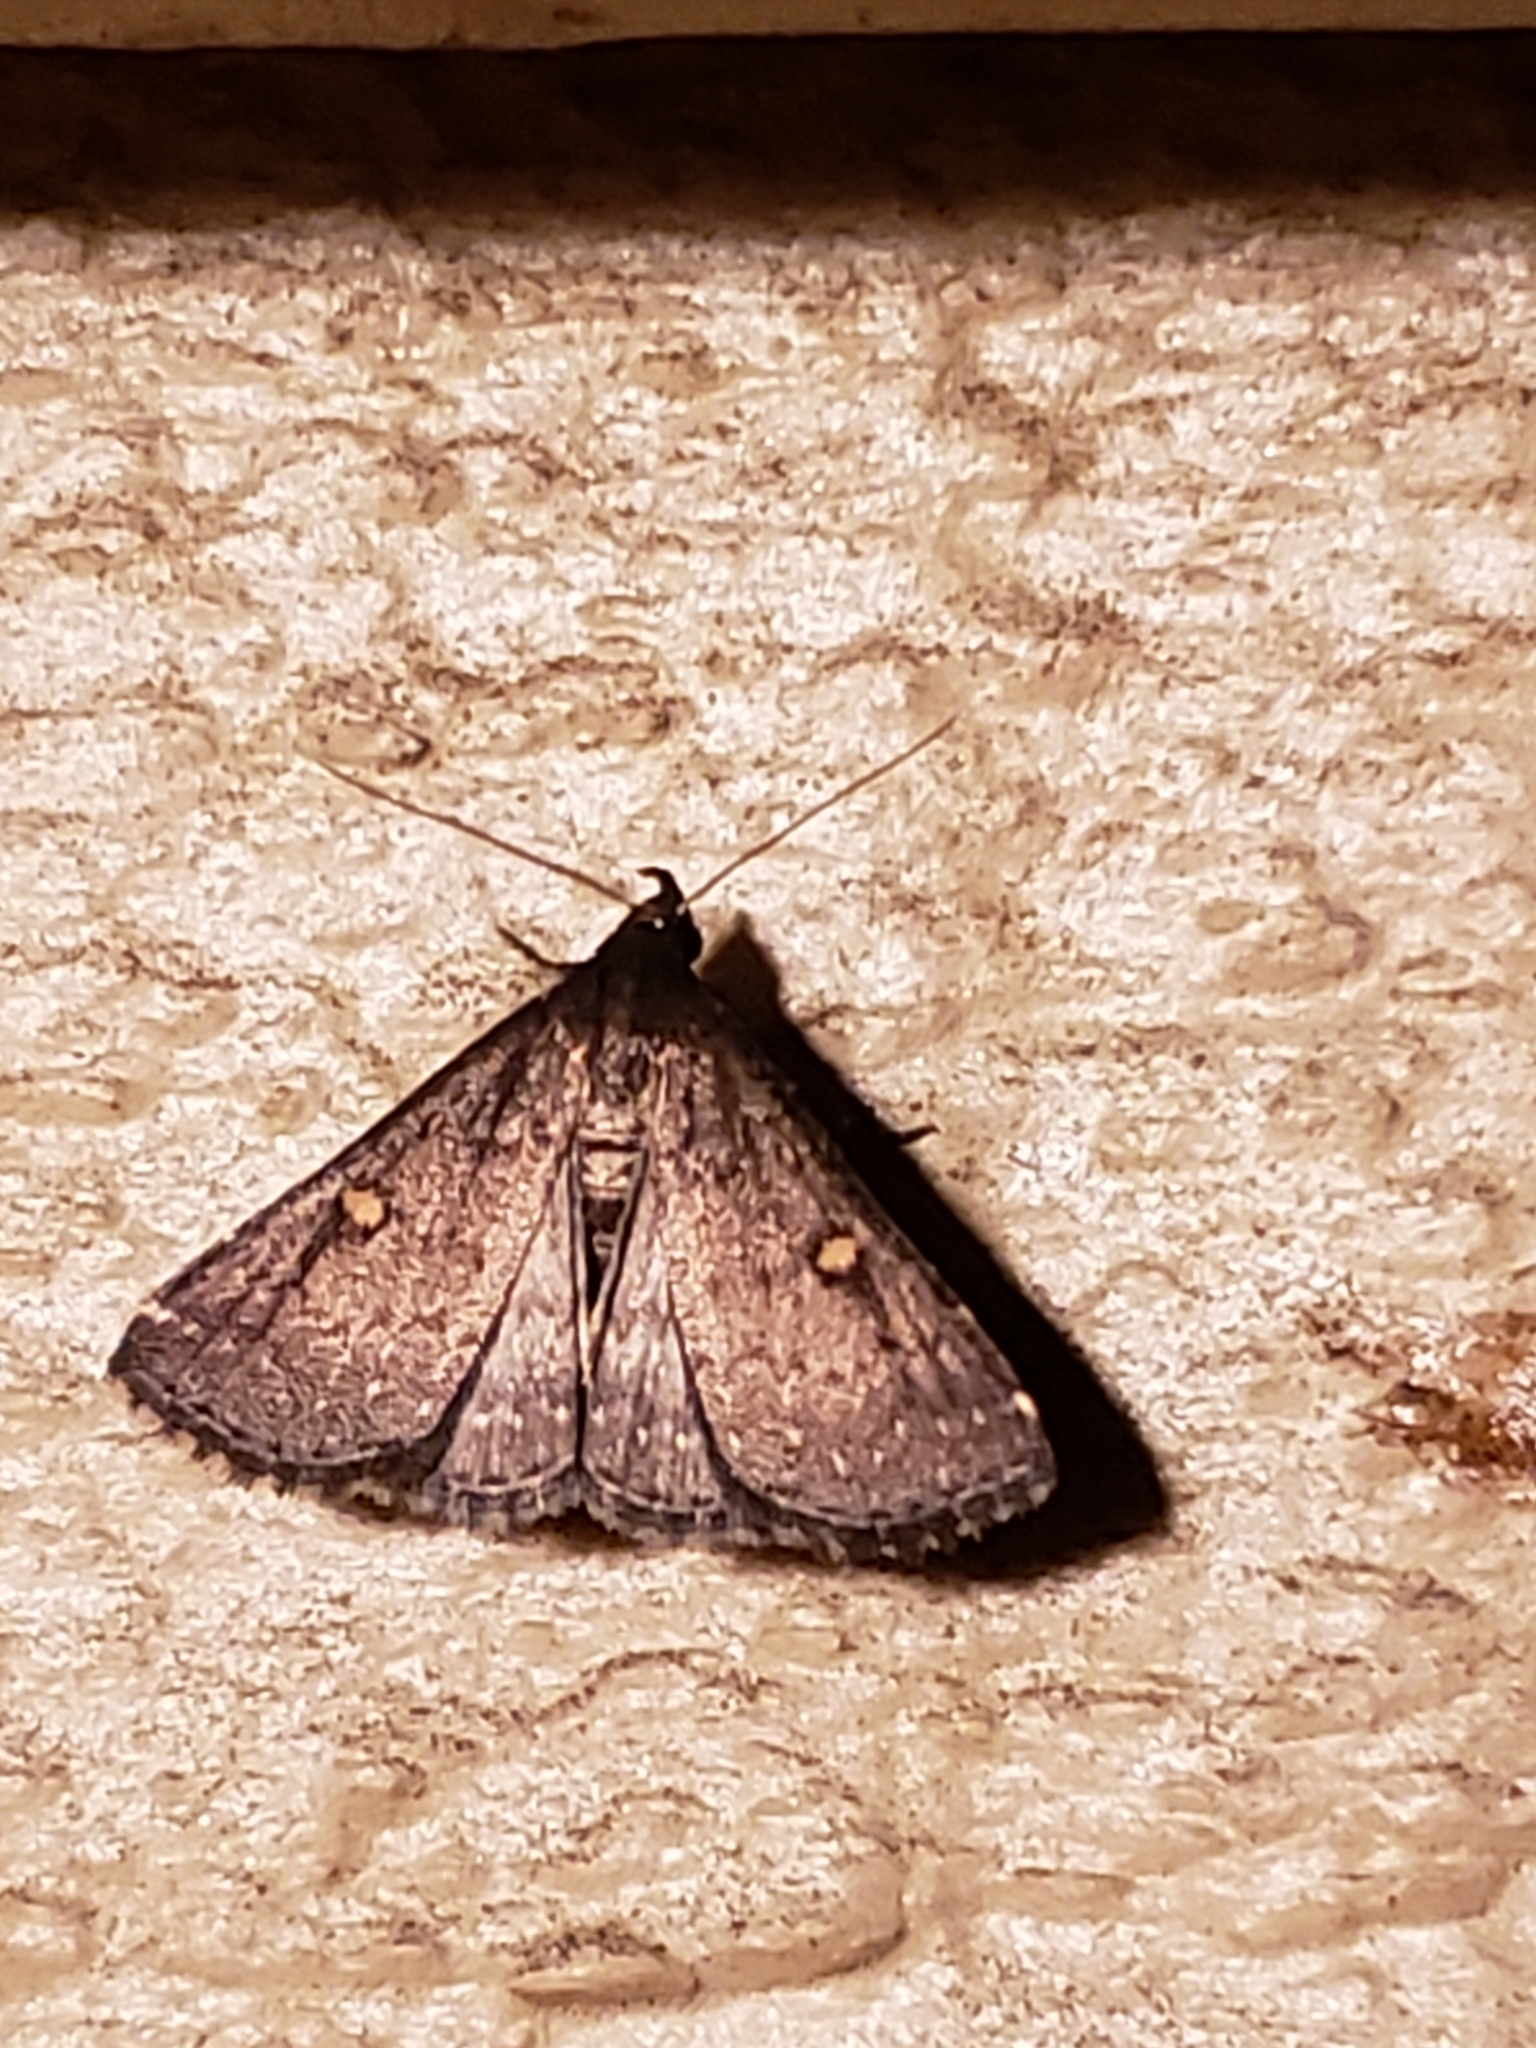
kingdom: Animalia
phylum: Arthropoda
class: Insecta
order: Lepidoptera
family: Erebidae
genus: Tetanolita
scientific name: Tetanolita mynesalis
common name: Smoky tetanolita moth
